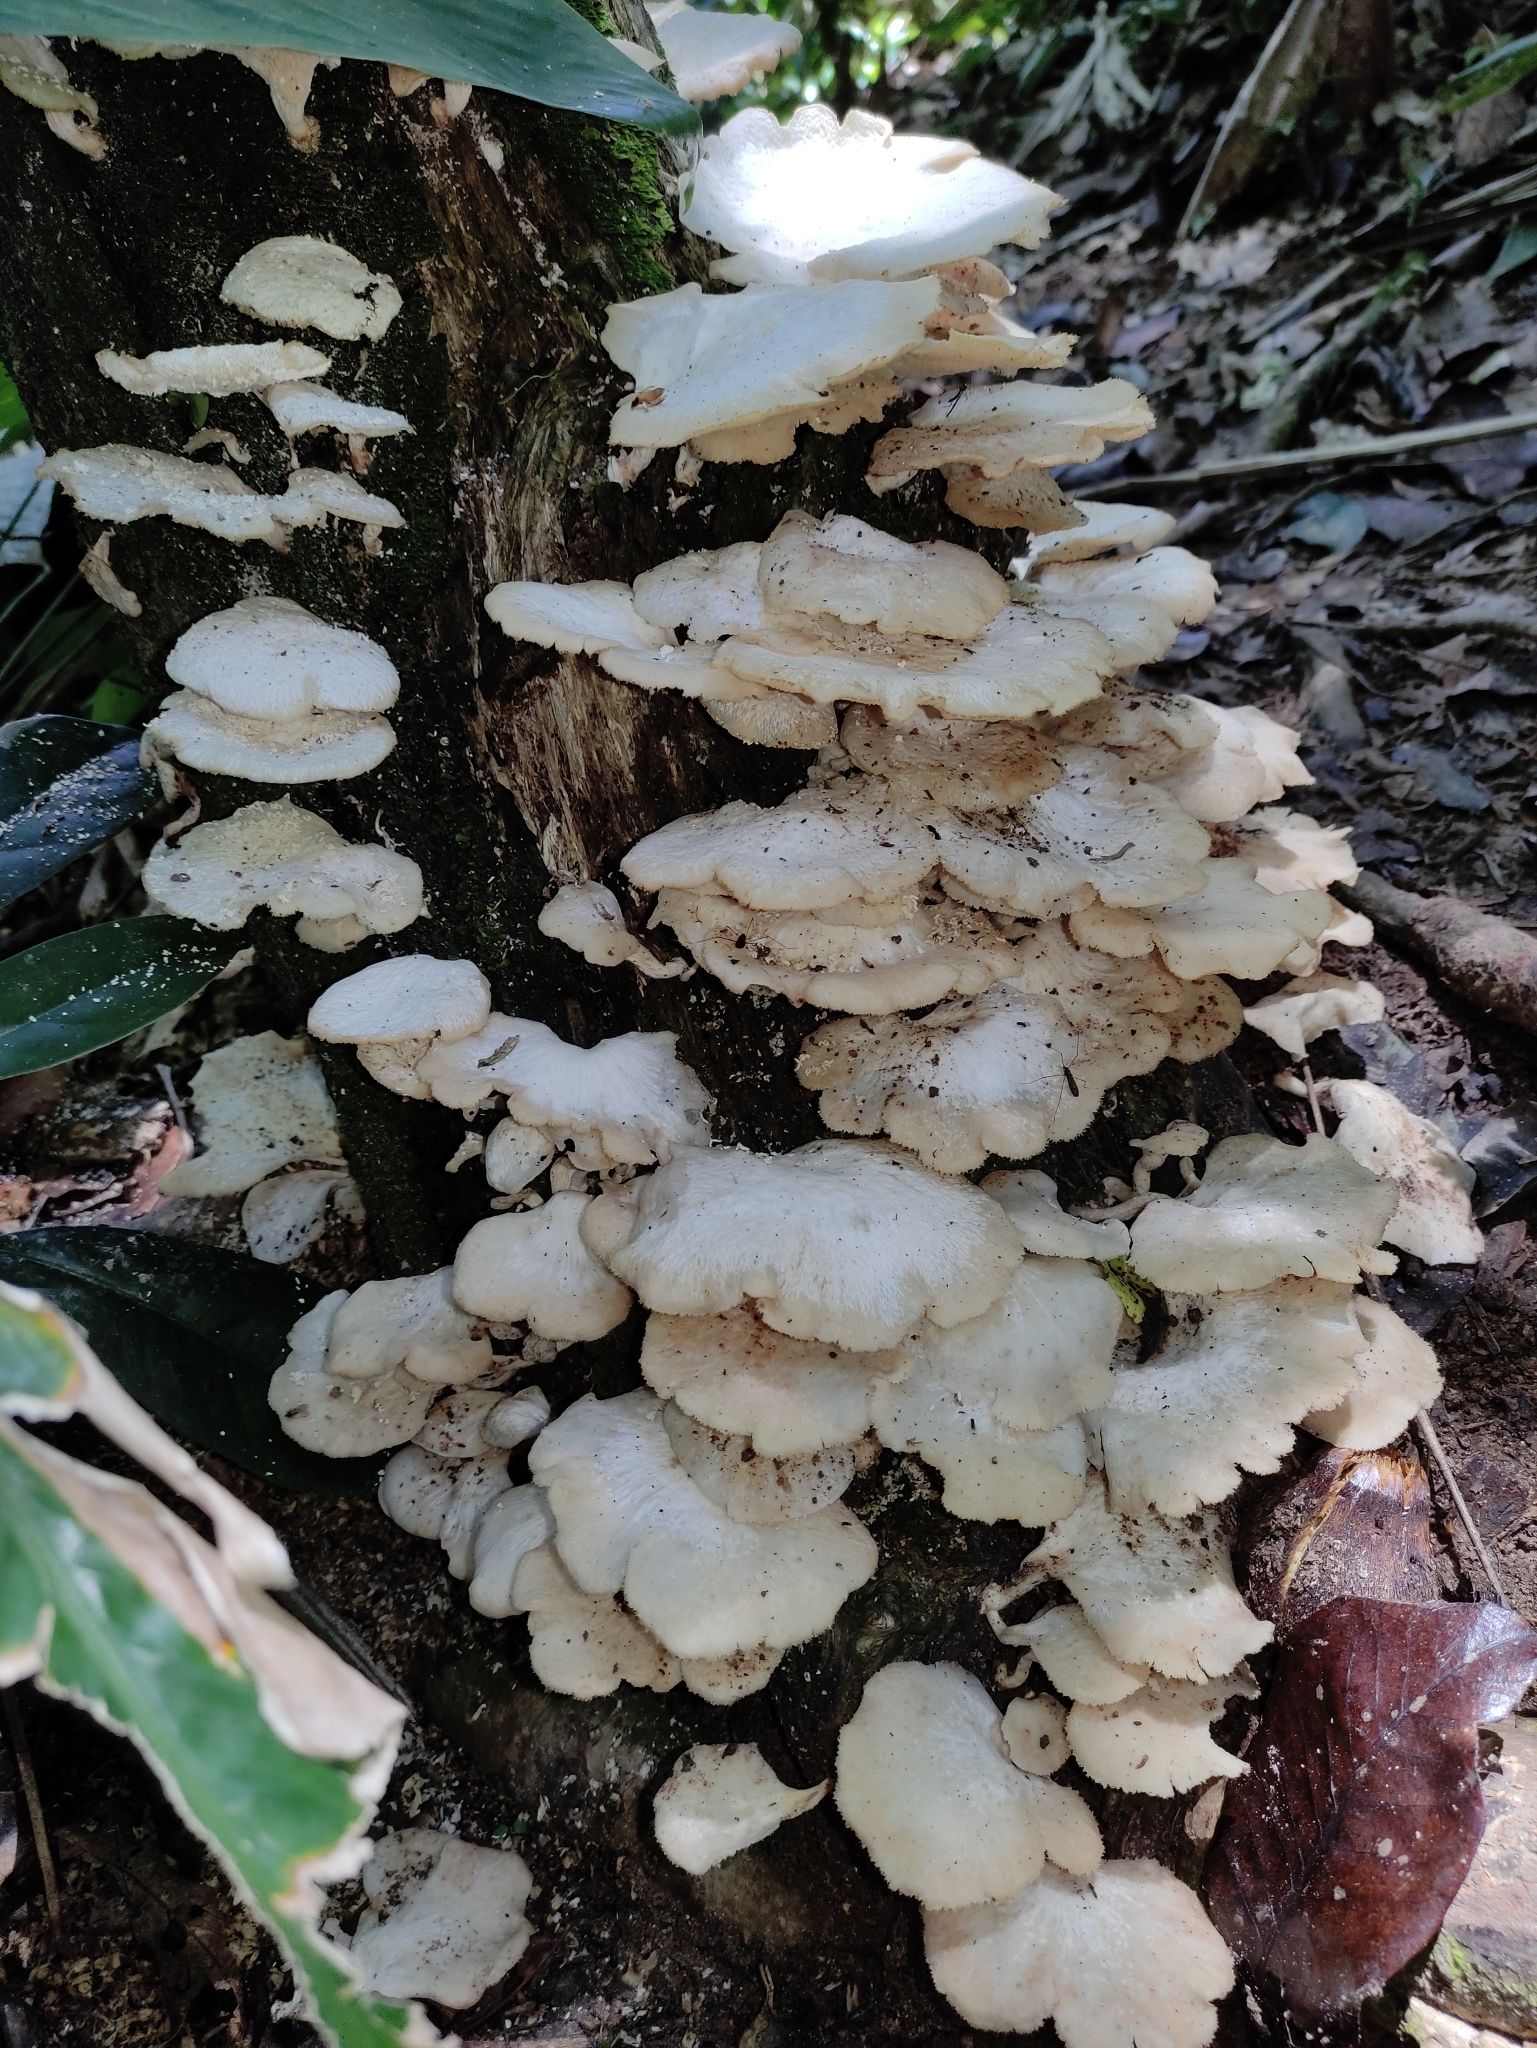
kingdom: Fungi
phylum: Basidiomycota
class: Agaricomycetes
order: Polyporales
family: Polyporaceae
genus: Favolus
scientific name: Favolus tenuiculus
